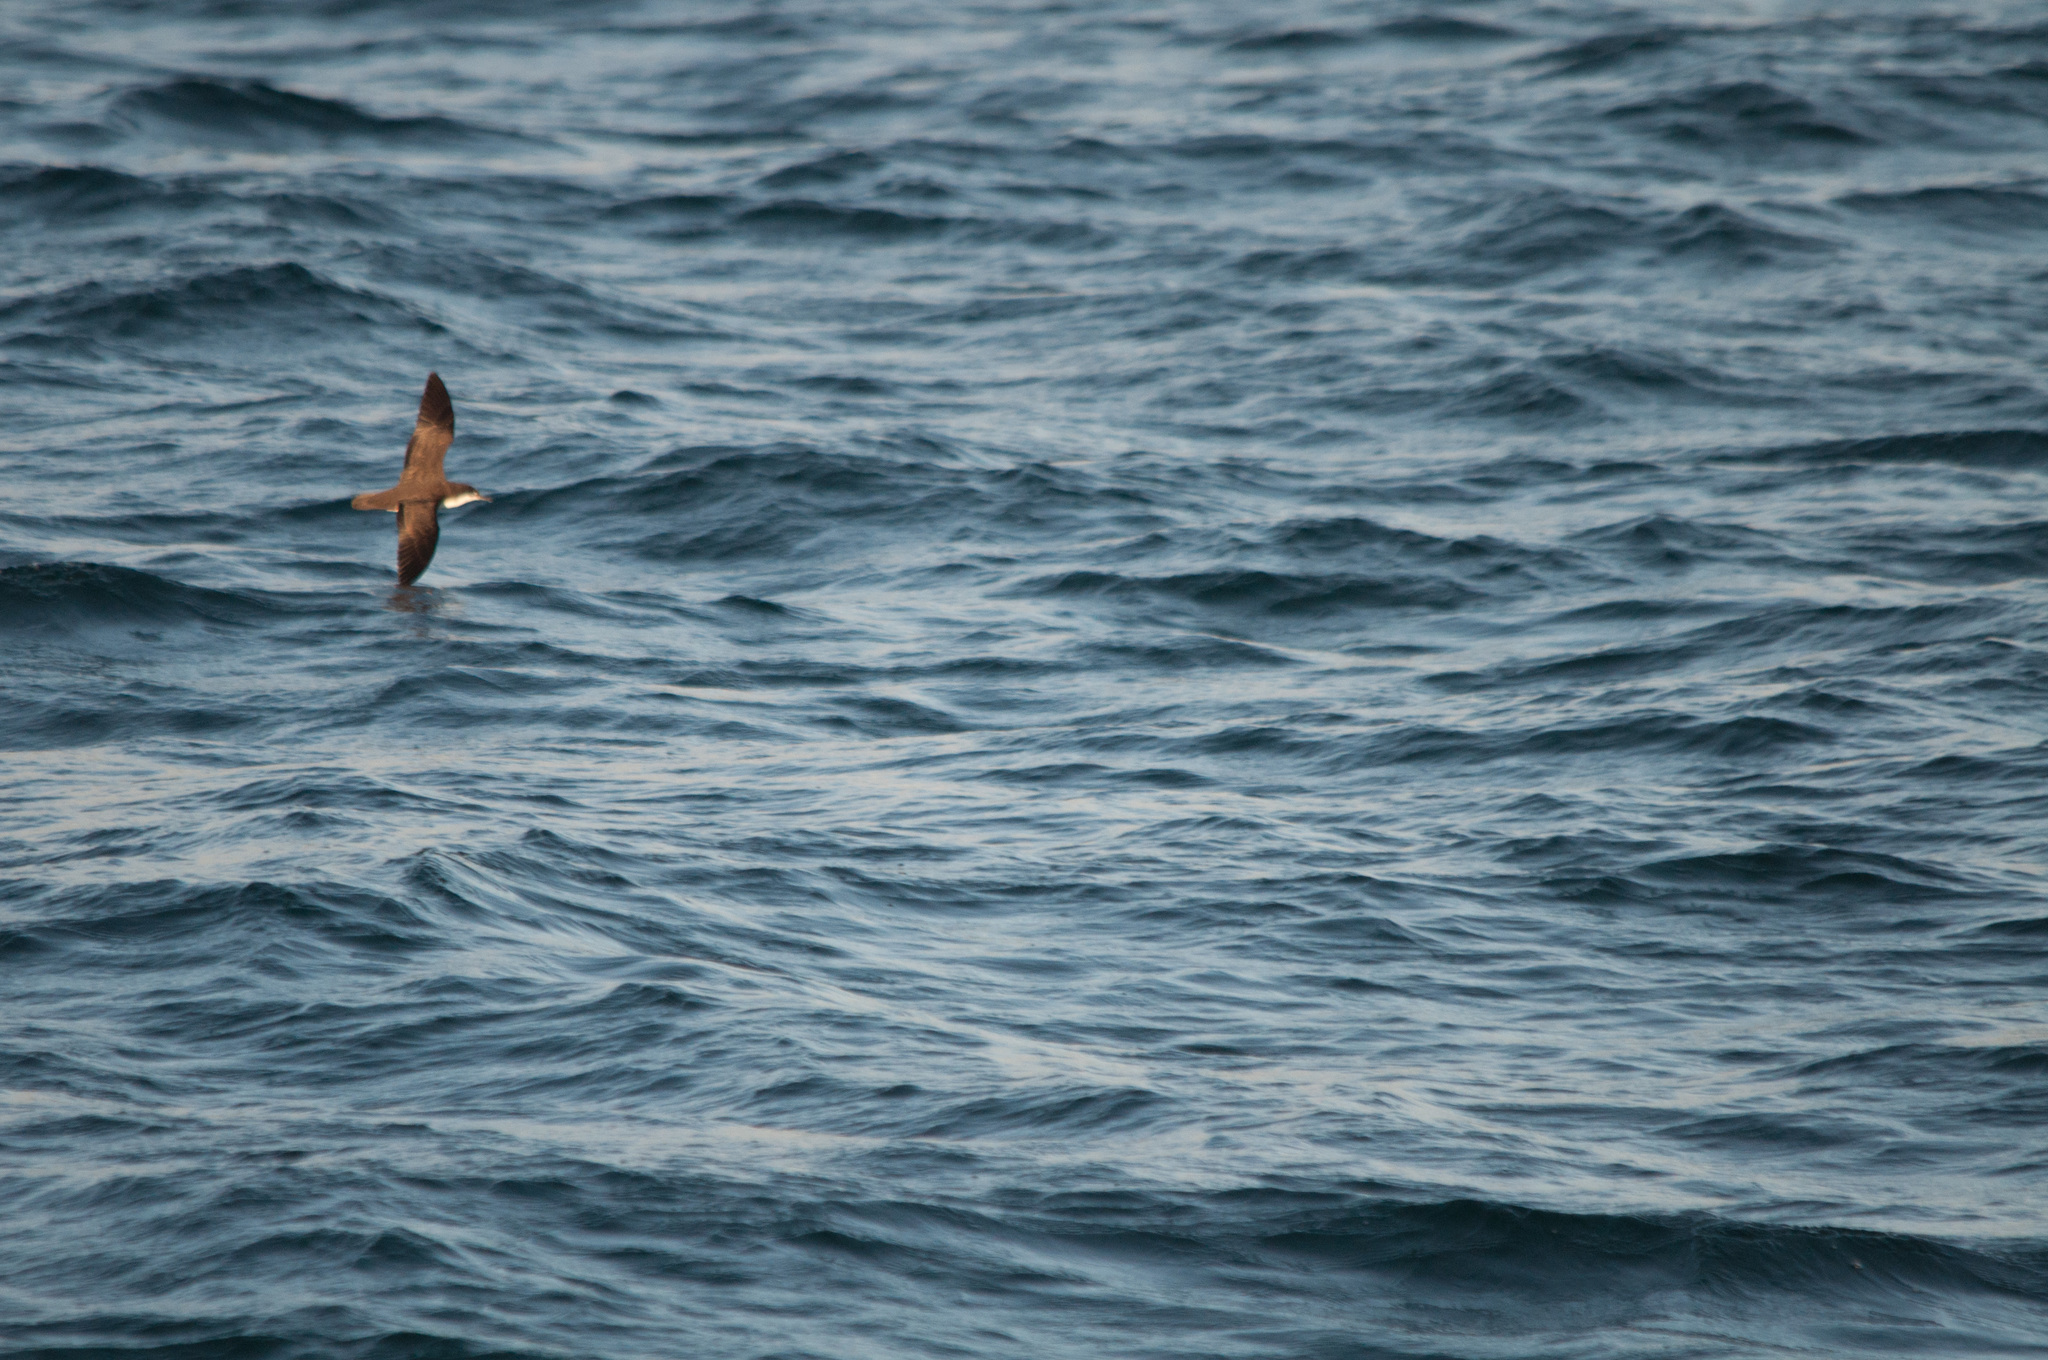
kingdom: Animalia
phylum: Chordata
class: Aves
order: Procellariiformes
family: Procellariidae
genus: Puffinus
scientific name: Puffinus subalaris
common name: Galapagos shearwater
